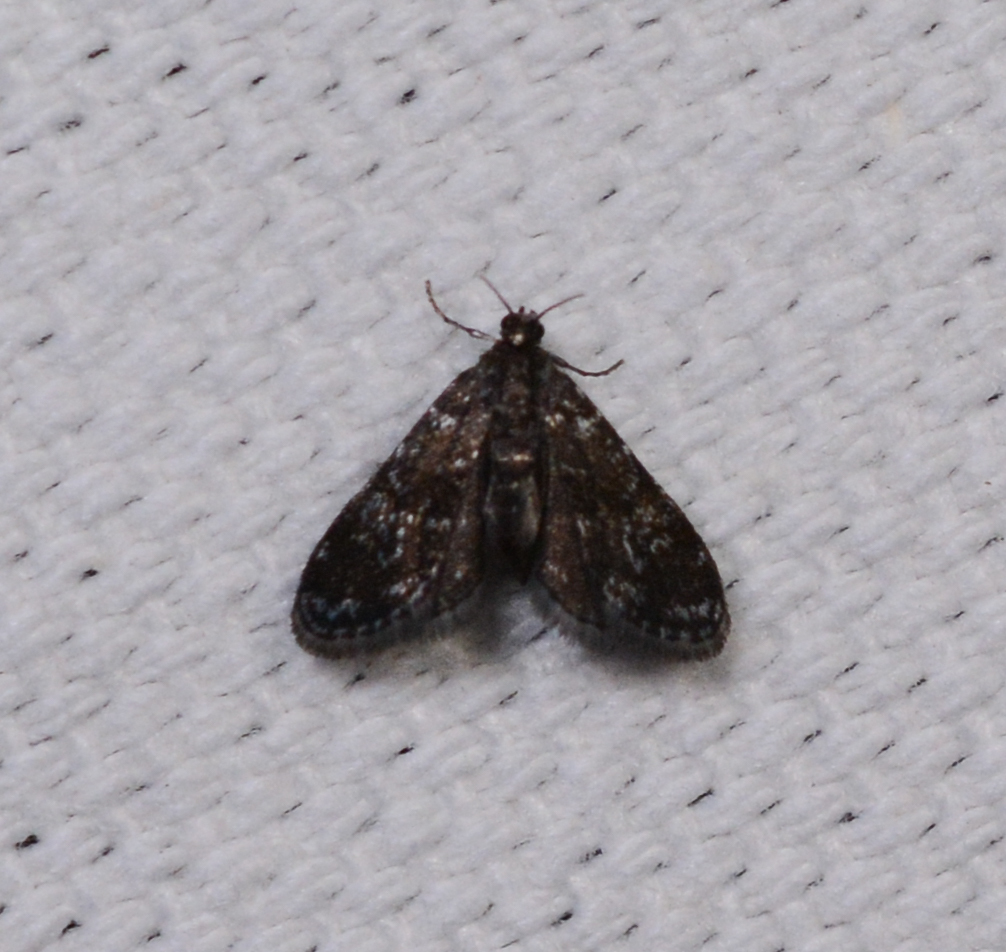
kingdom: Animalia
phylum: Arthropoda
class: Insecta
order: Lepidoptera
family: Crambidae
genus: Elophila
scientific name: Elophila tinealis
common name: Black duckweed moth
